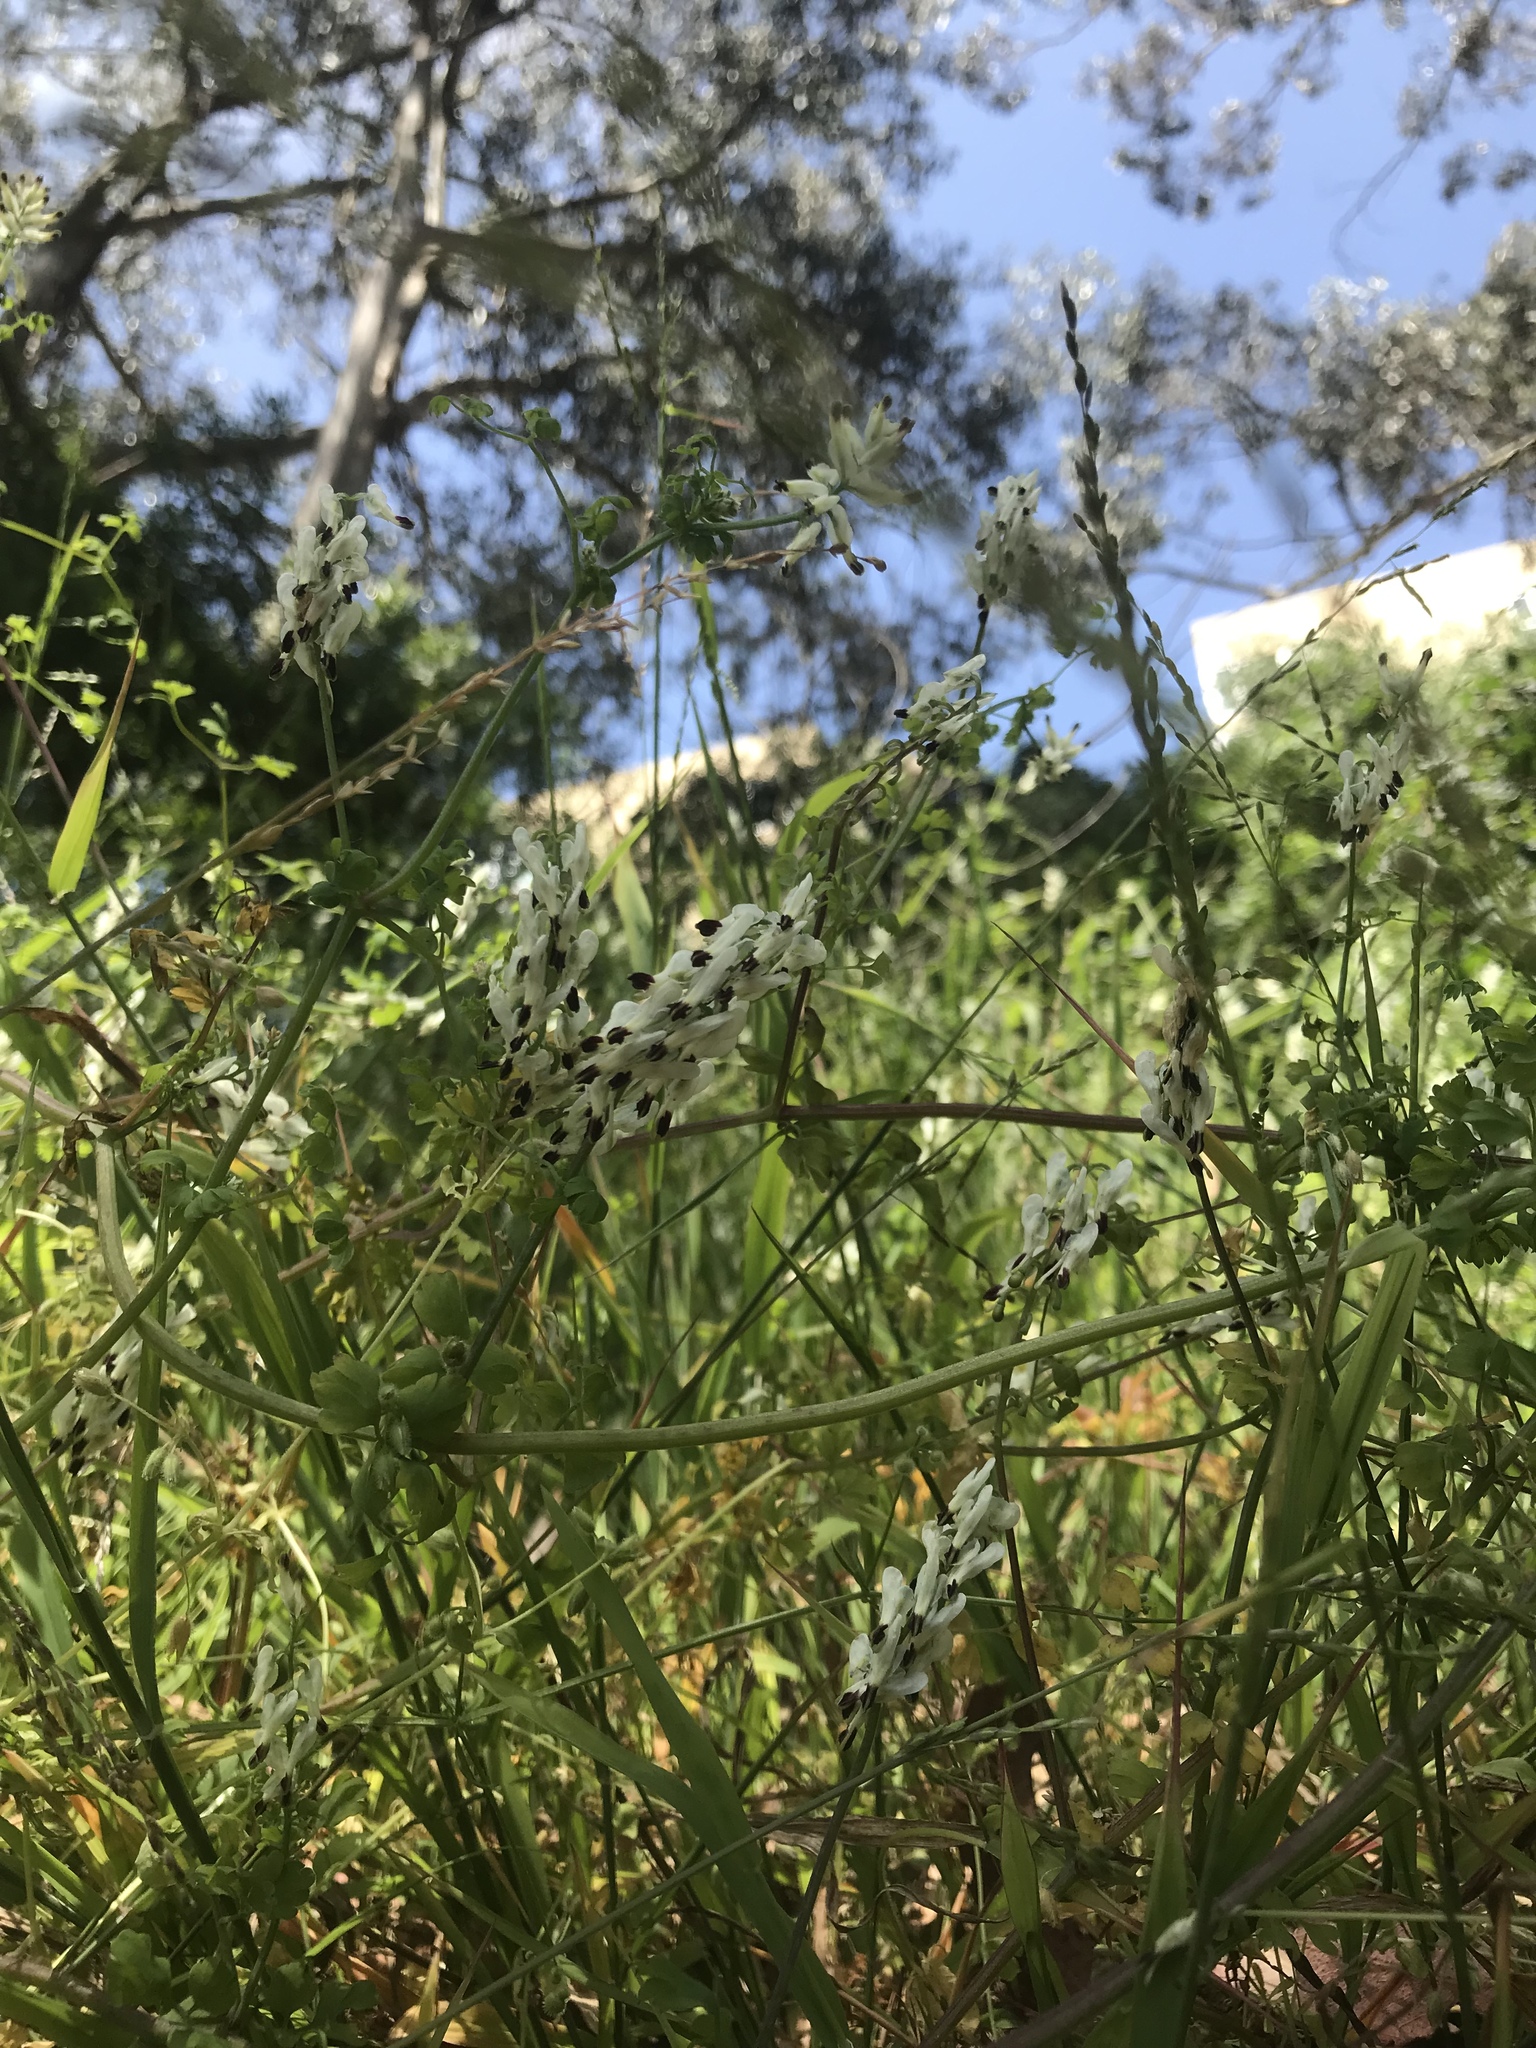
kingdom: Plantae
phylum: Tracheophyta
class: Magnoliopsida
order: Ranunculales
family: Papaveraceae
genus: Fumaria
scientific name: Fumaria capreolata
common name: White ramping-fumitory
